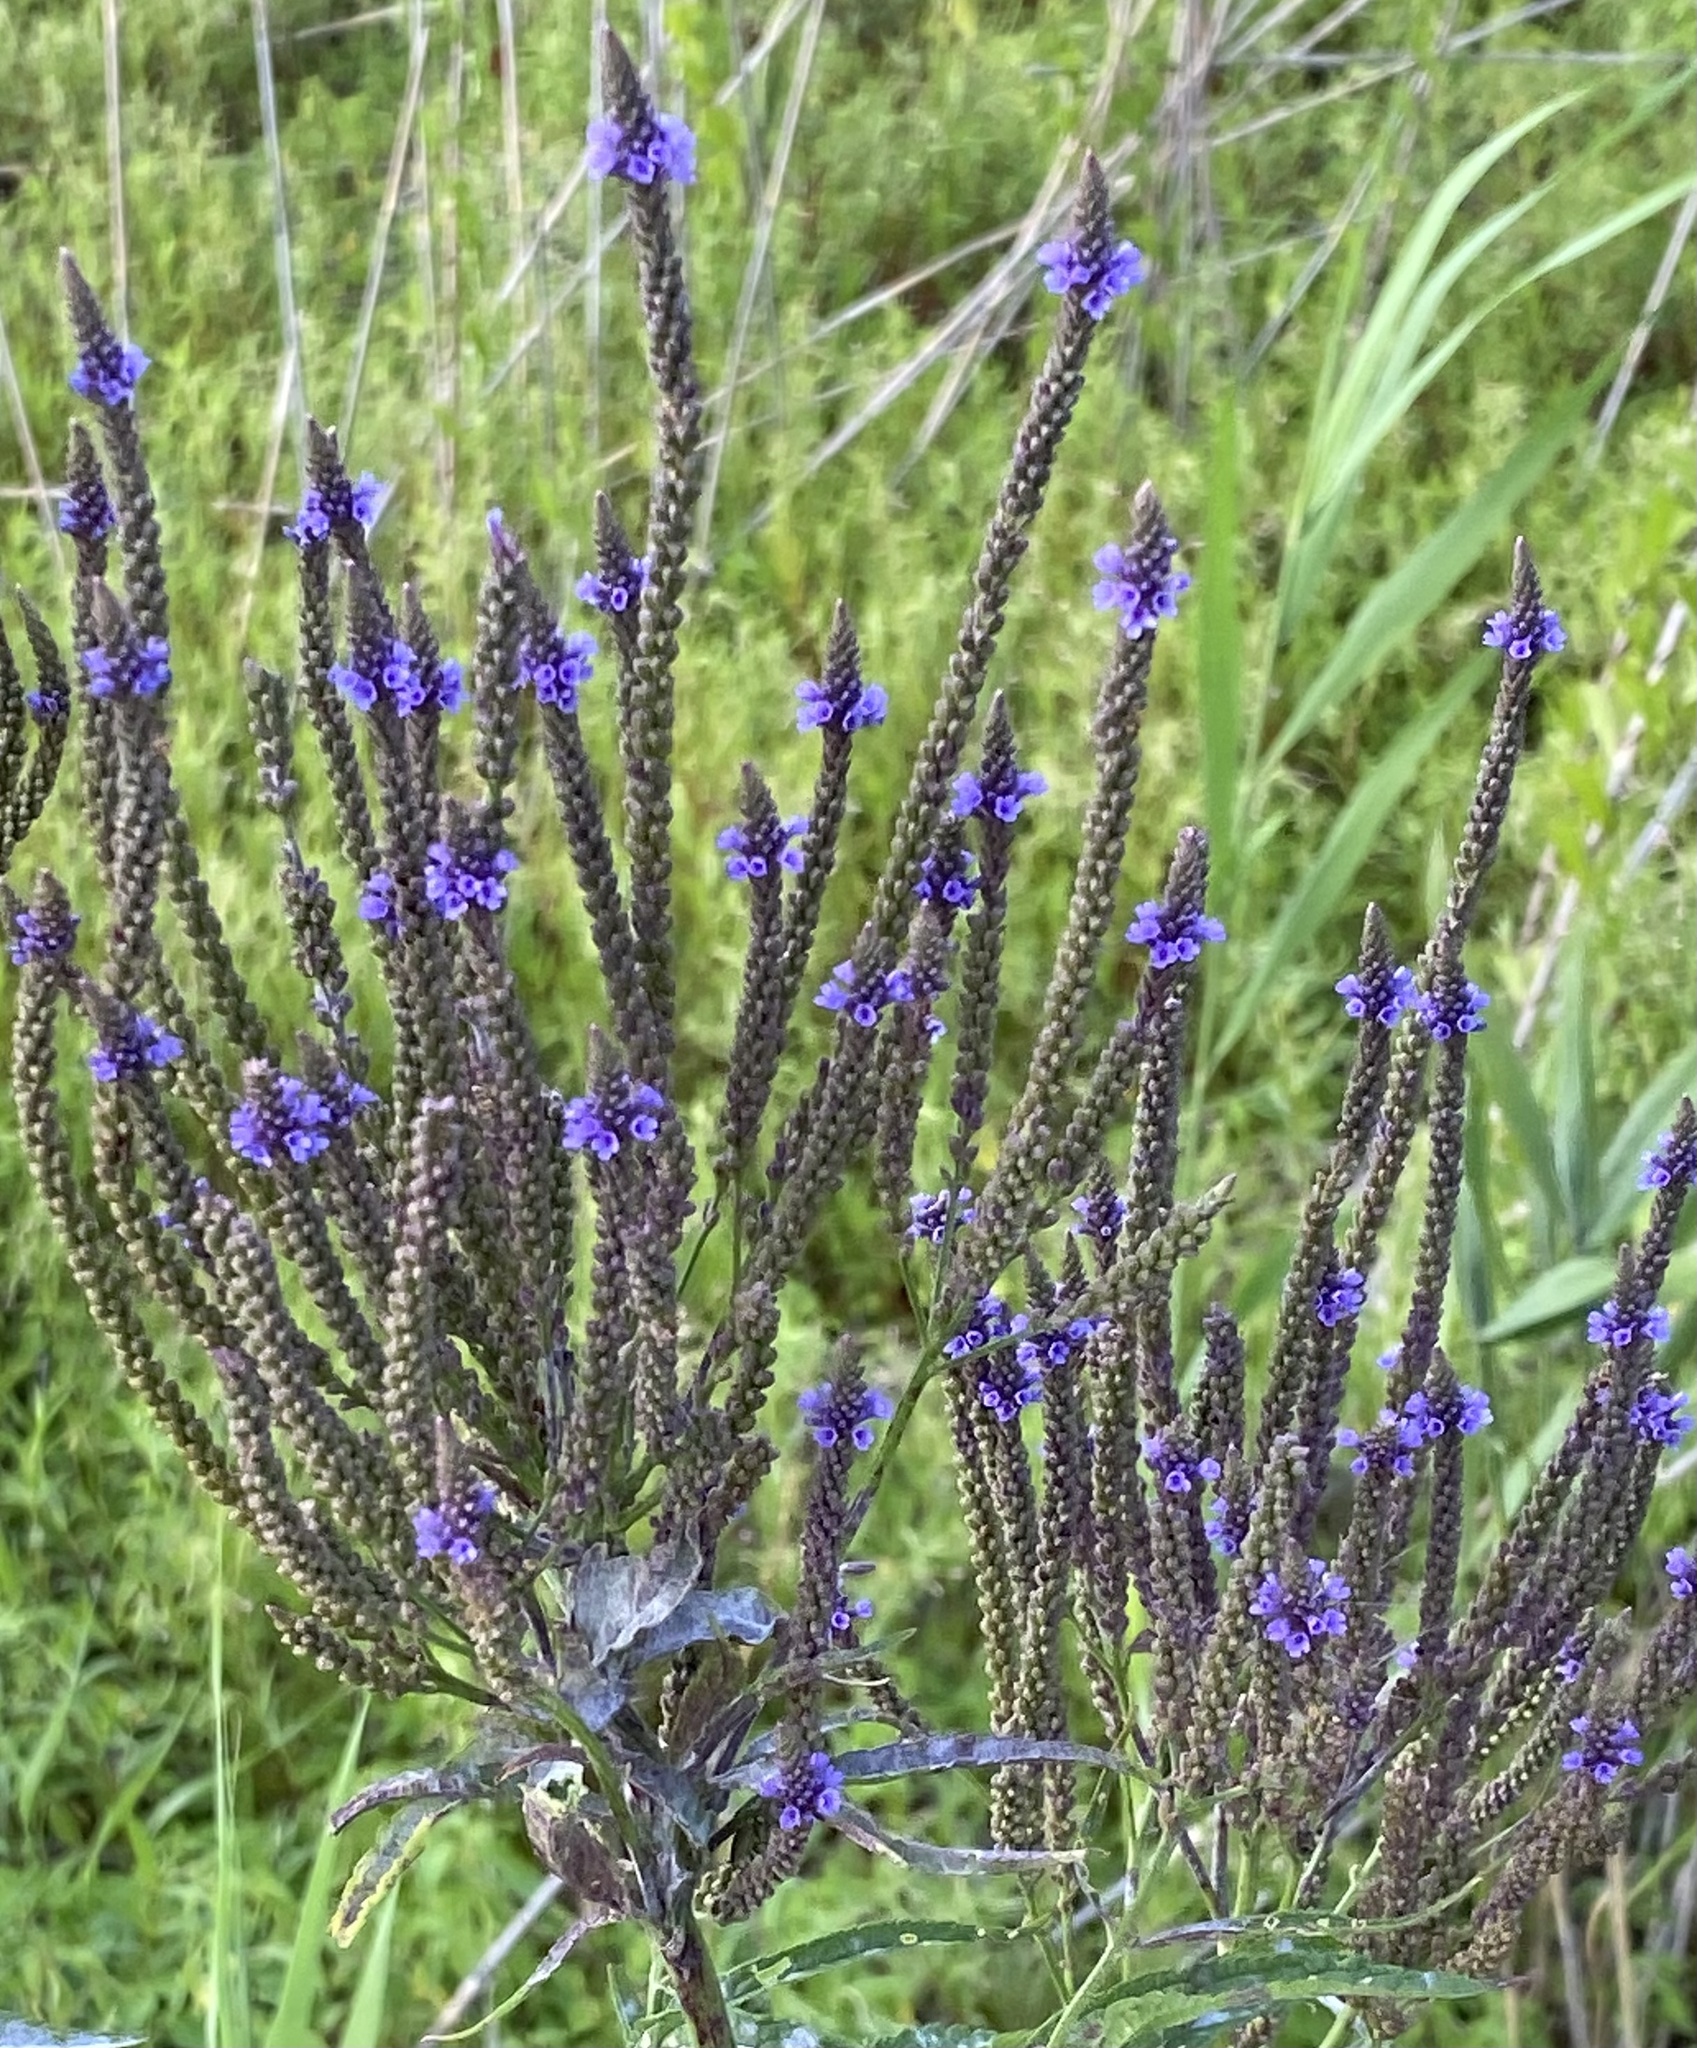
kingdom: Plantae
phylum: Tracheophyta
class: Magnoliopsida
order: Lamiales
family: Verbenaceae
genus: Verbena
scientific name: Verbena hastata
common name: American blue vervain
